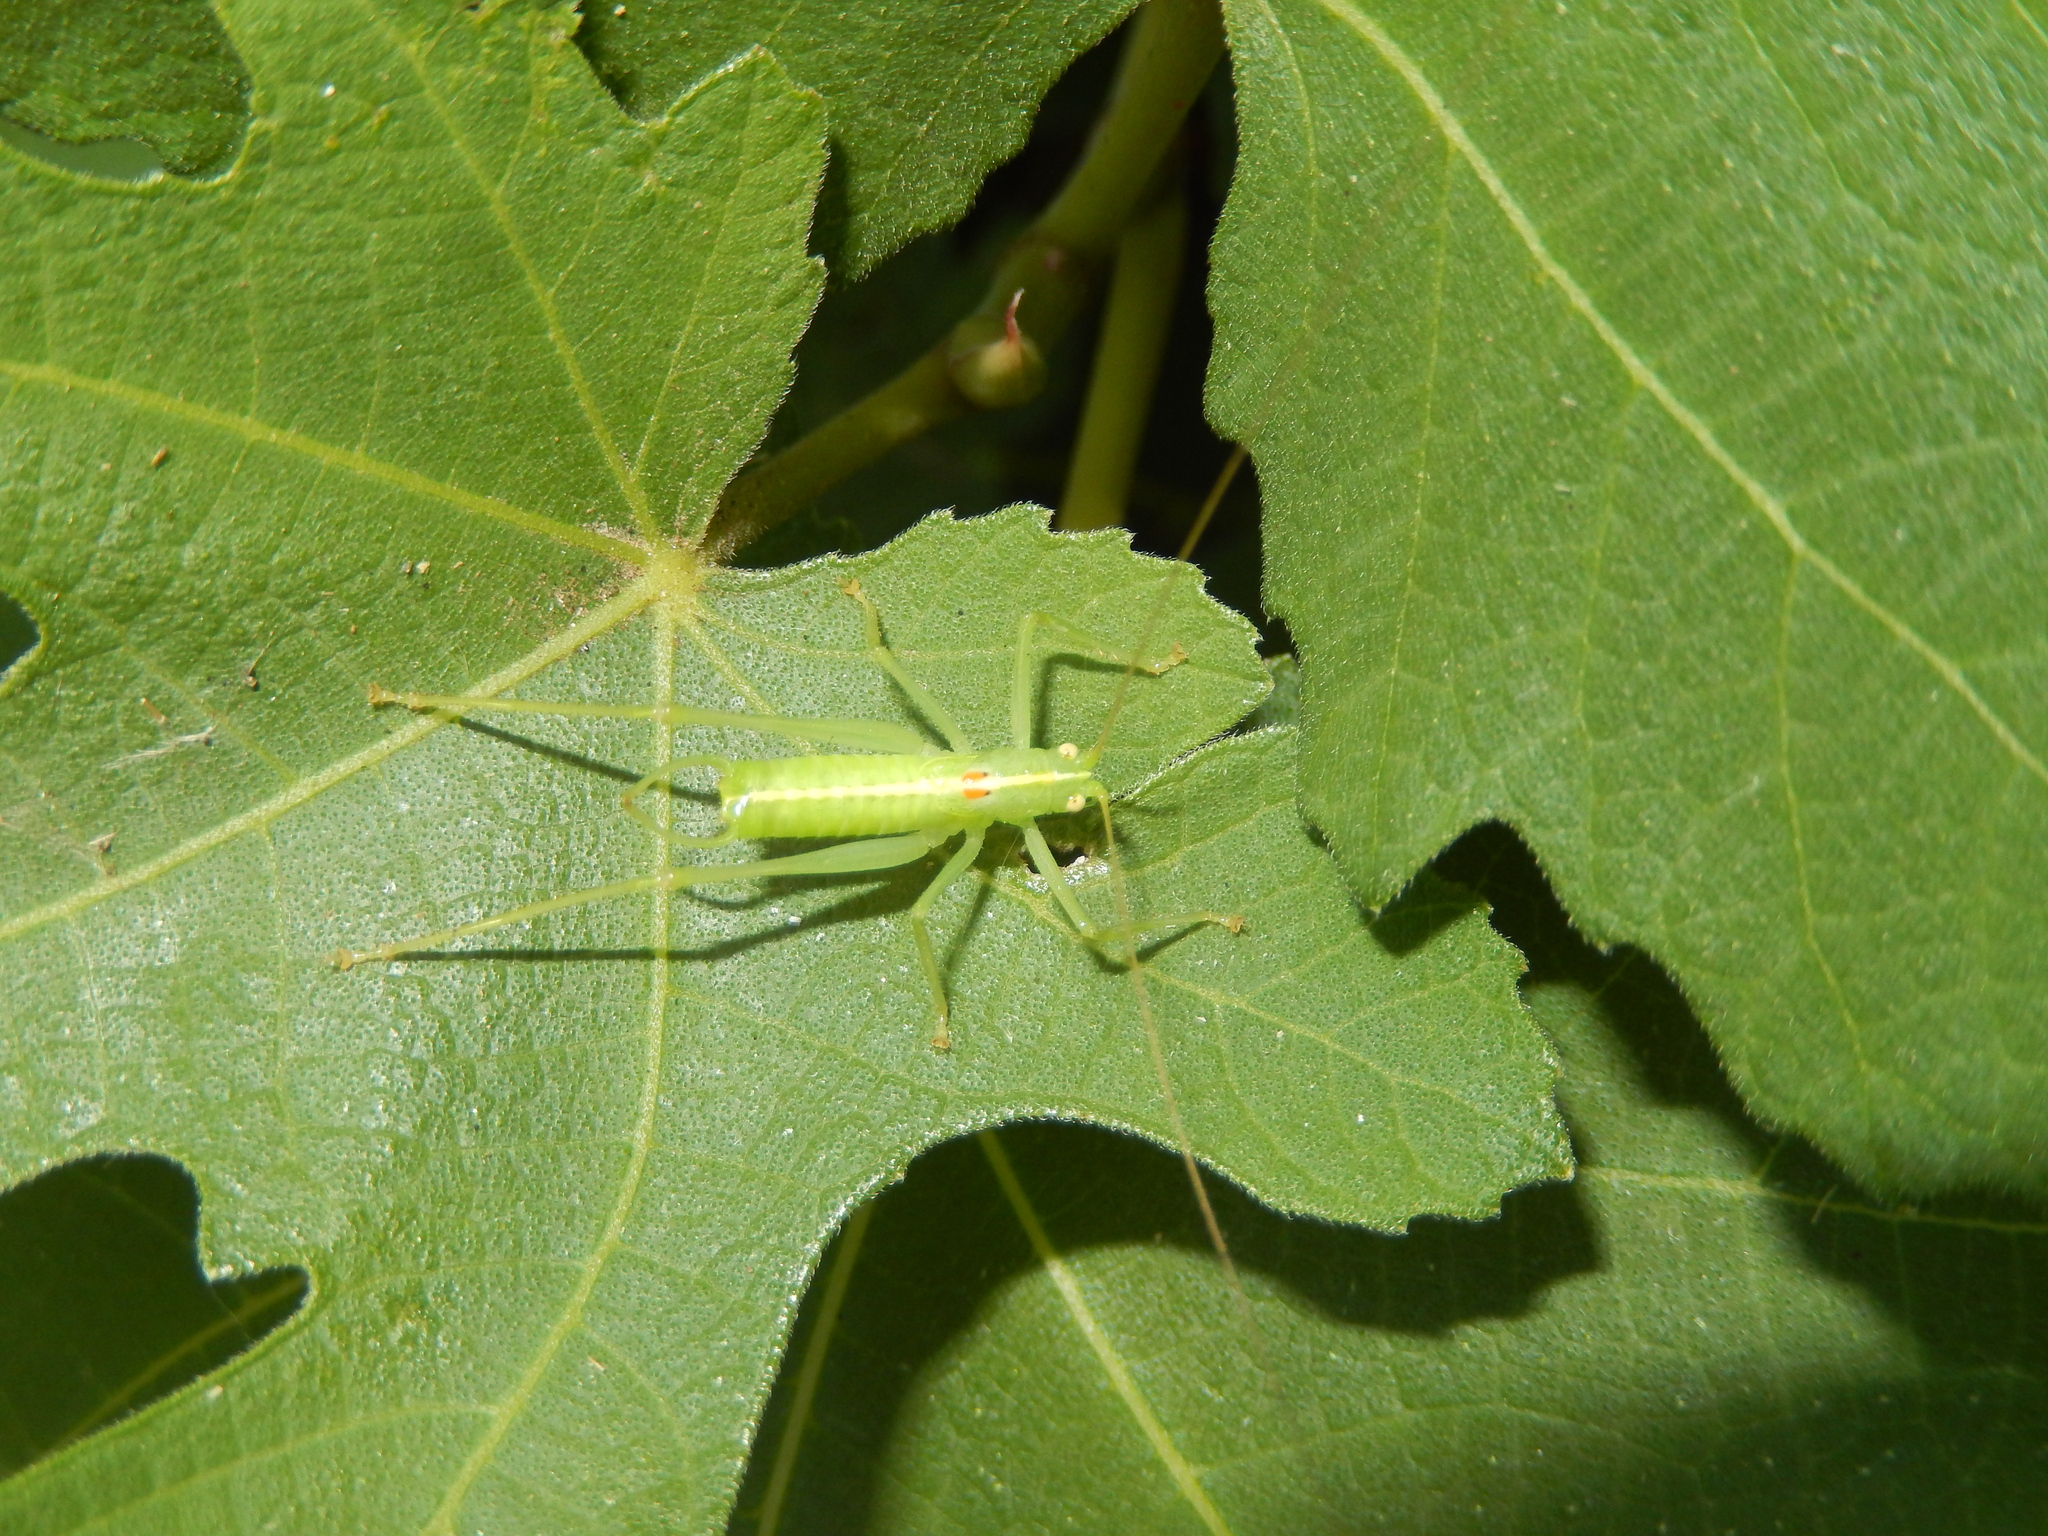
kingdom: Animalia
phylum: Arthropoda
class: Insecta
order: Orthoptera
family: Tettigoniidae
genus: Meconema
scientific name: Meconema meridionale
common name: Southern oak bush-cricket
